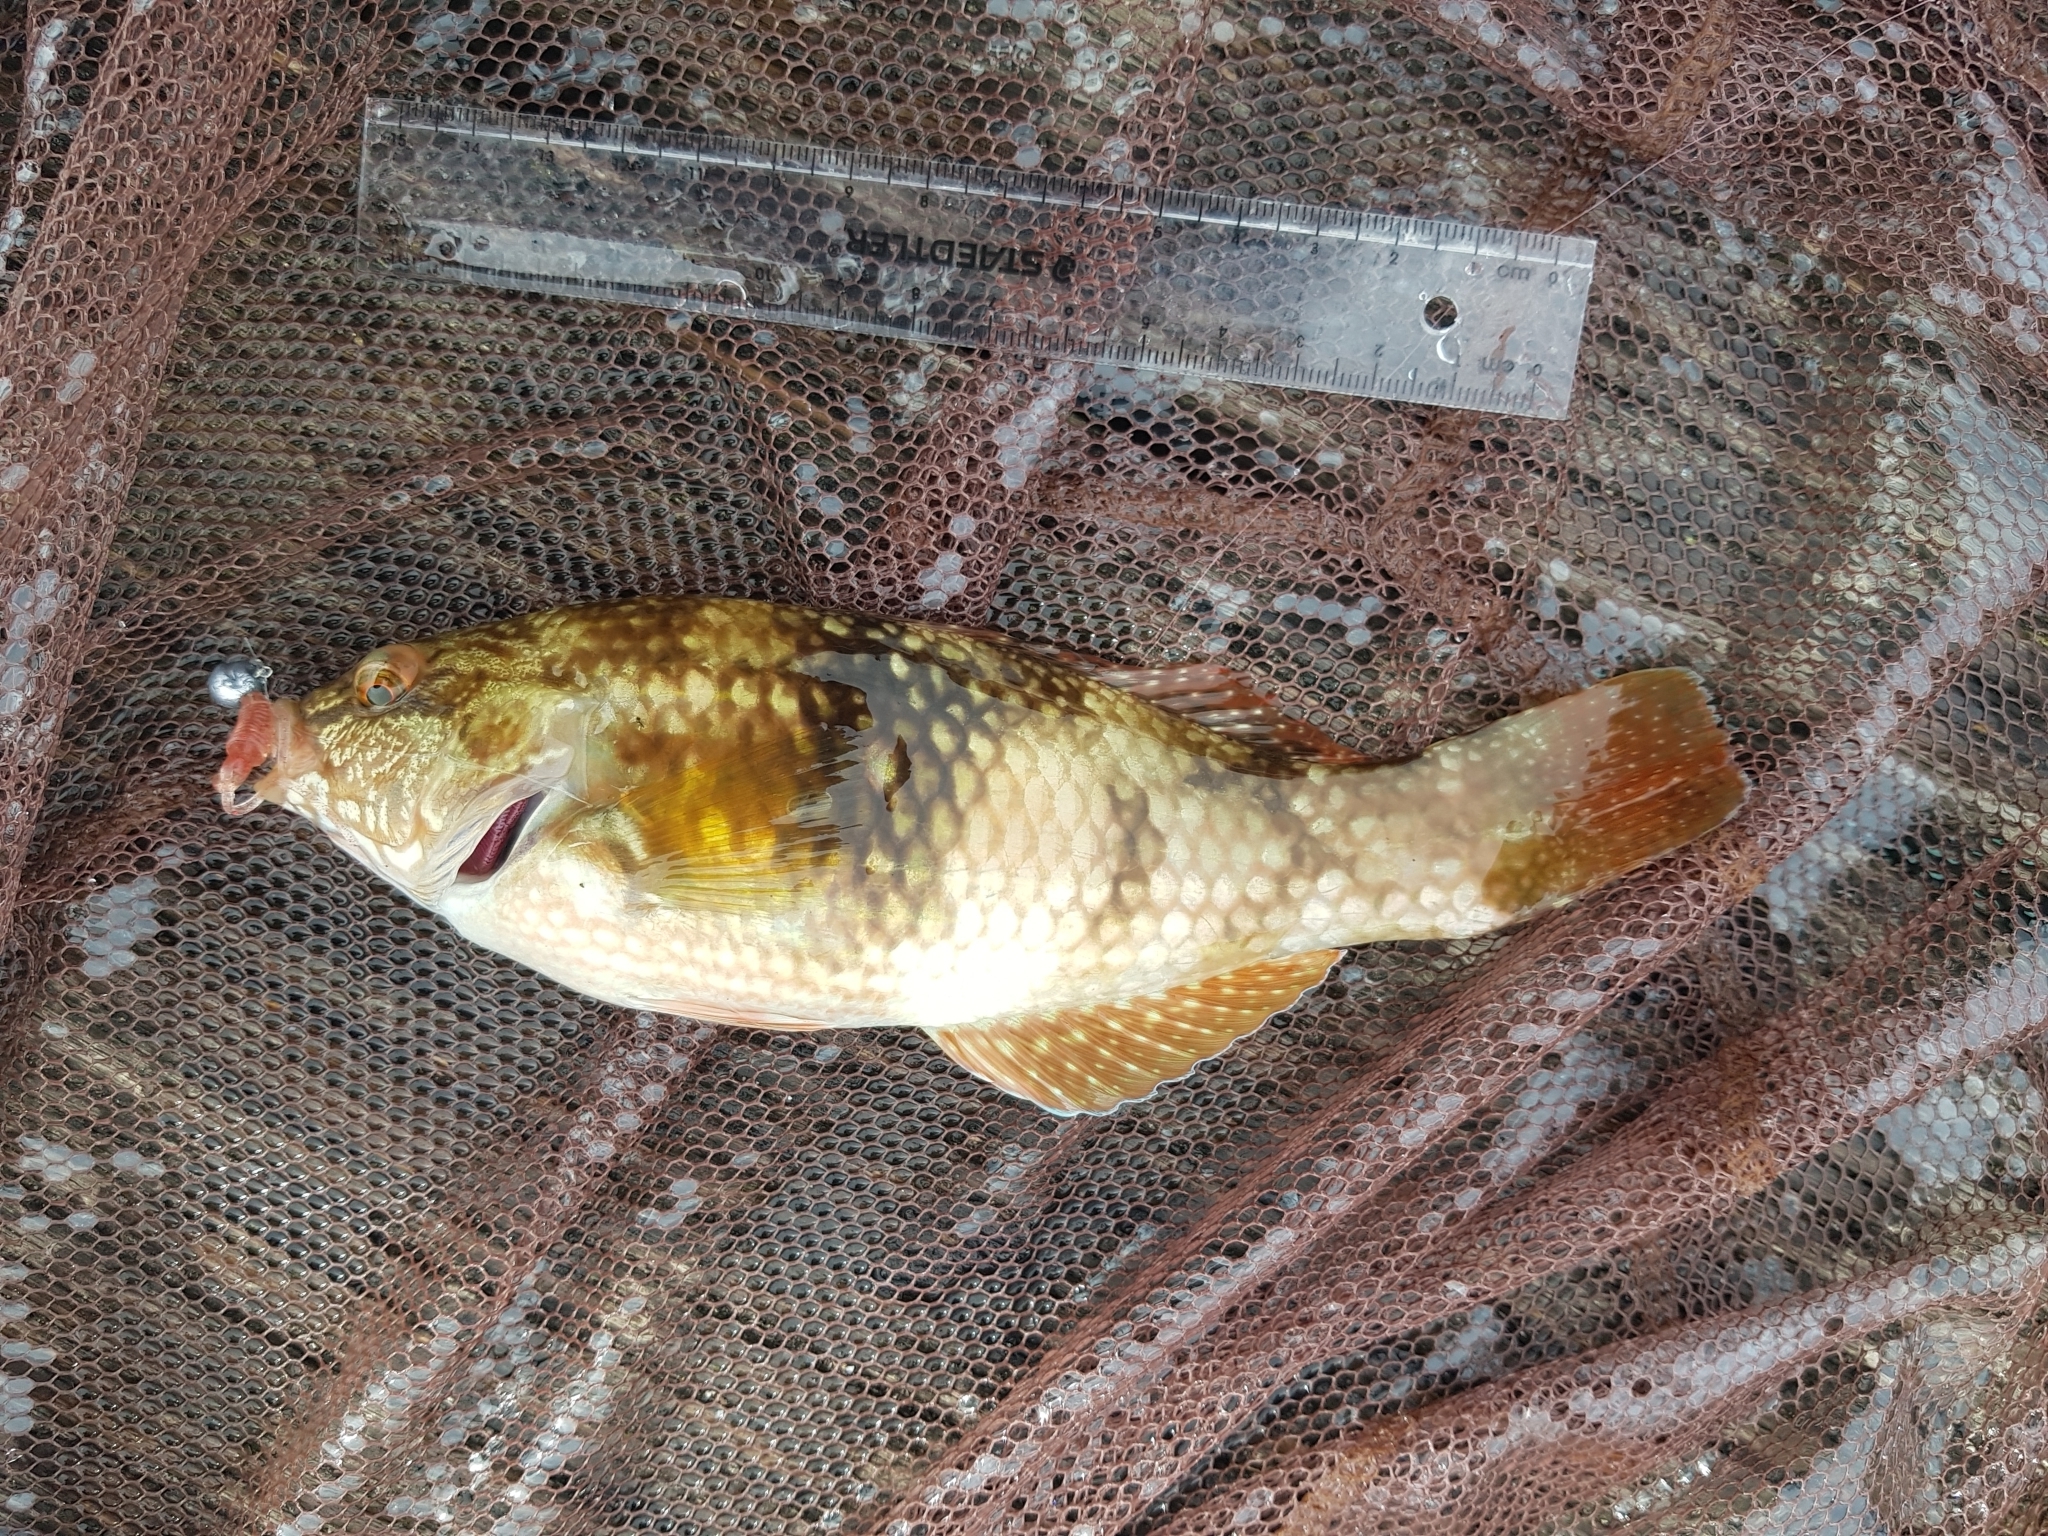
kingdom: Animalia
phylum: Chordata
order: Perciformes
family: Labridae
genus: Notolabrus
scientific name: Notolabrus tetricus
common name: Blue-throated parrotfish
